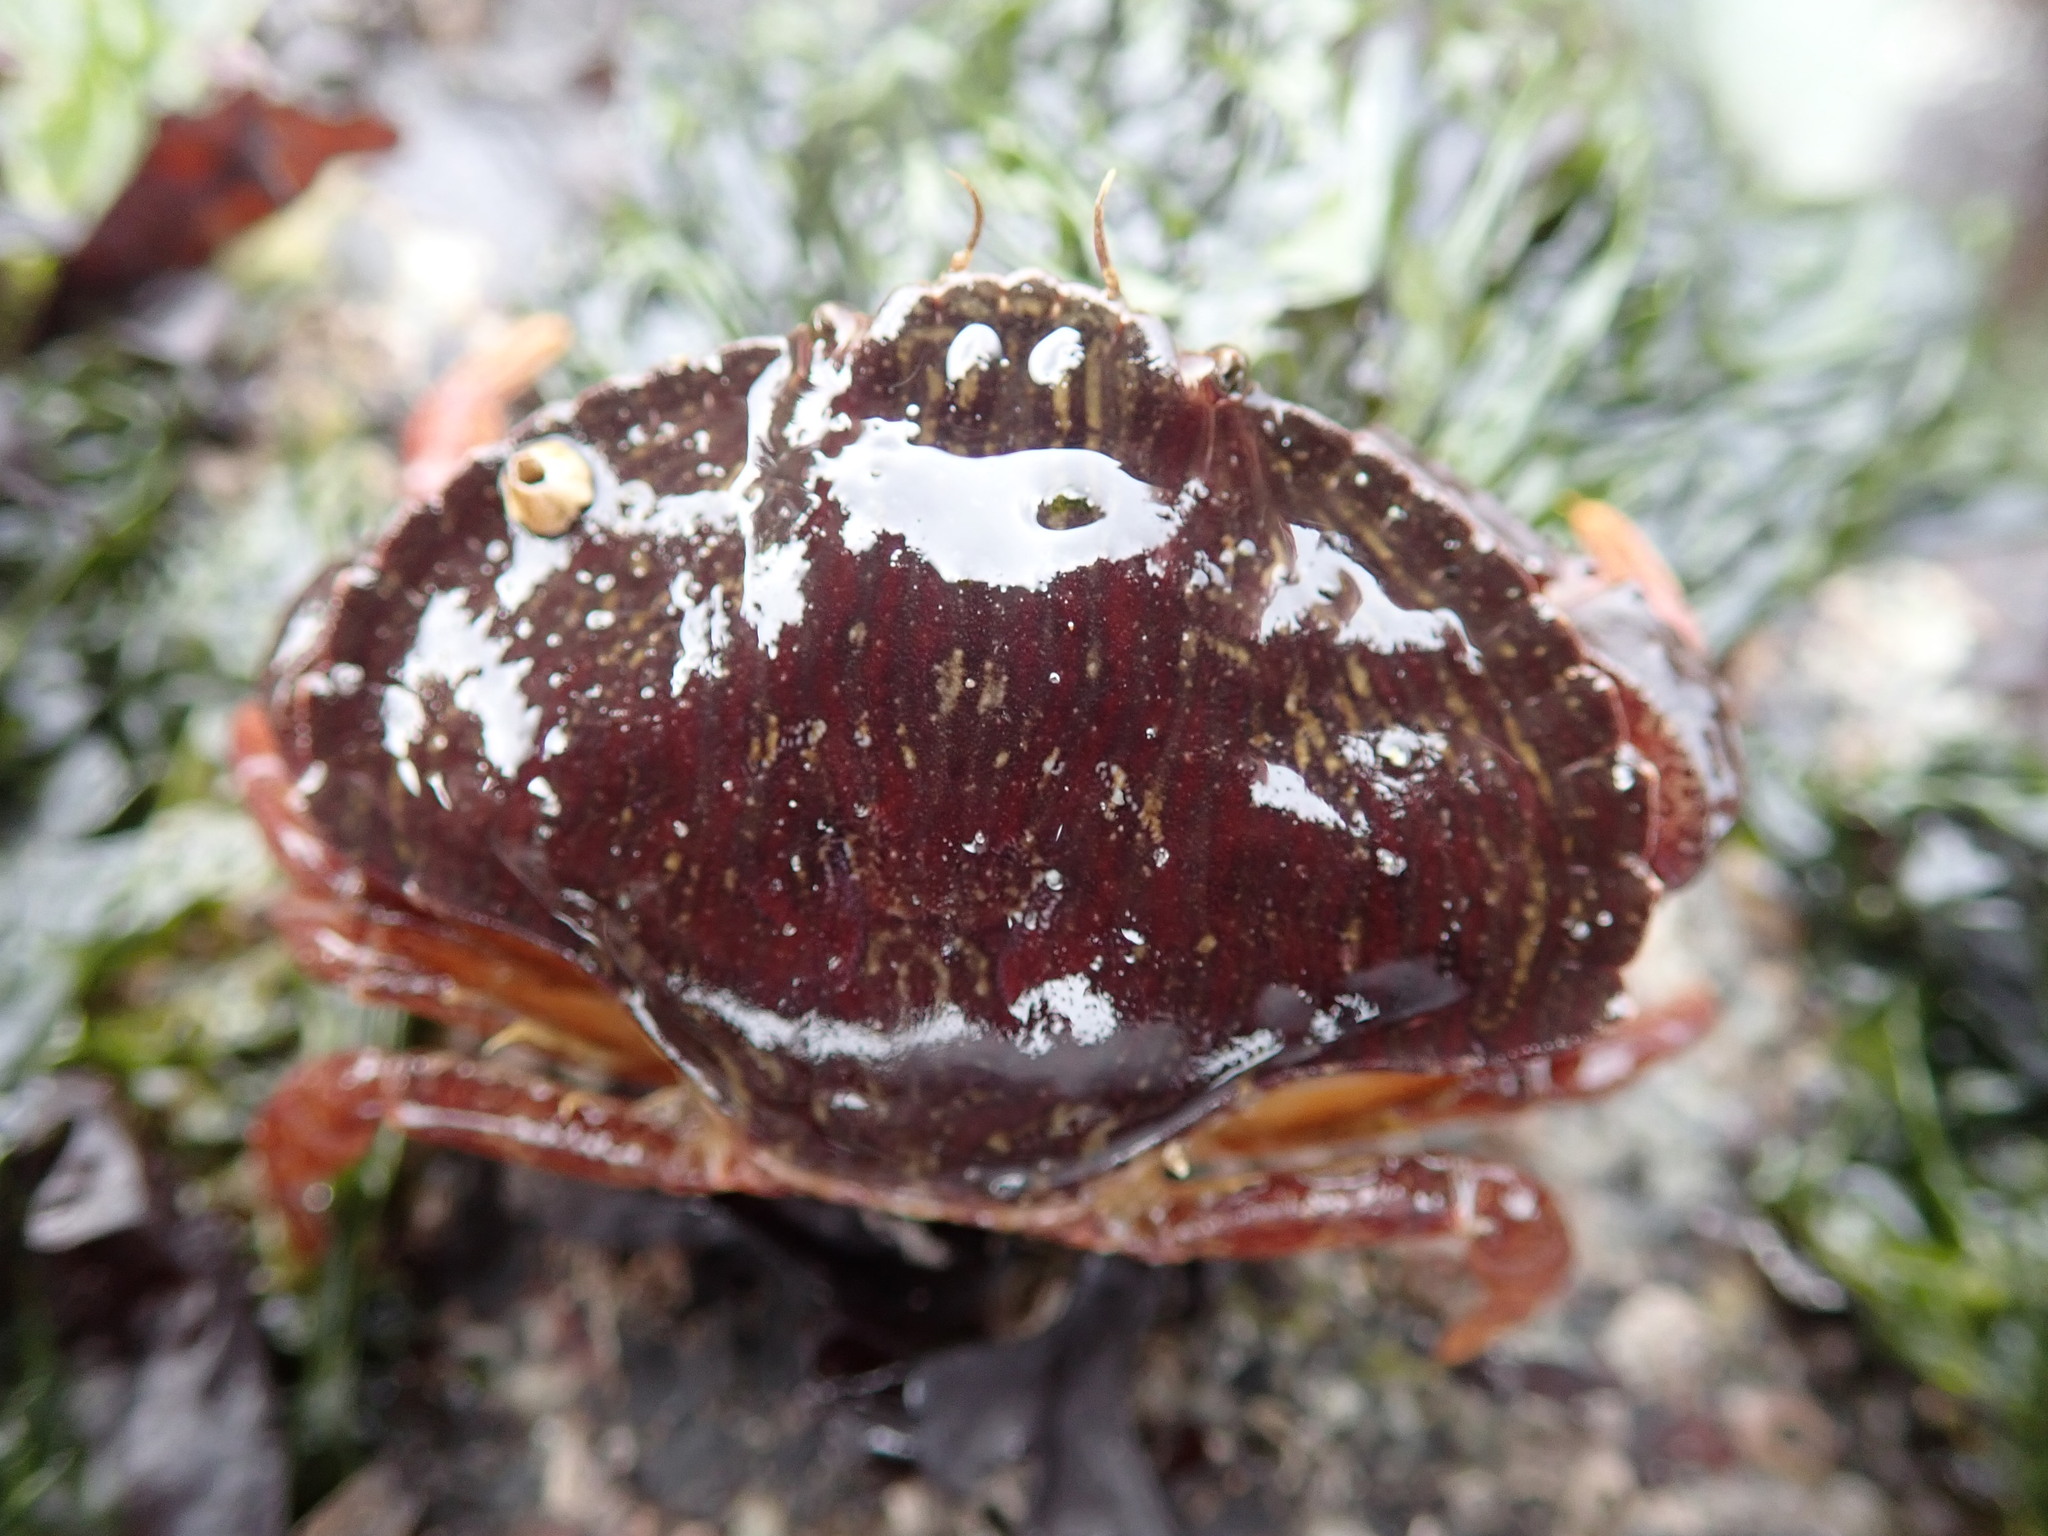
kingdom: Animalia
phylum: Arthropoda
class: Malacostraca
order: Decapoda
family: Cancridae
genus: Cancer
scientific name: Cancer productus
